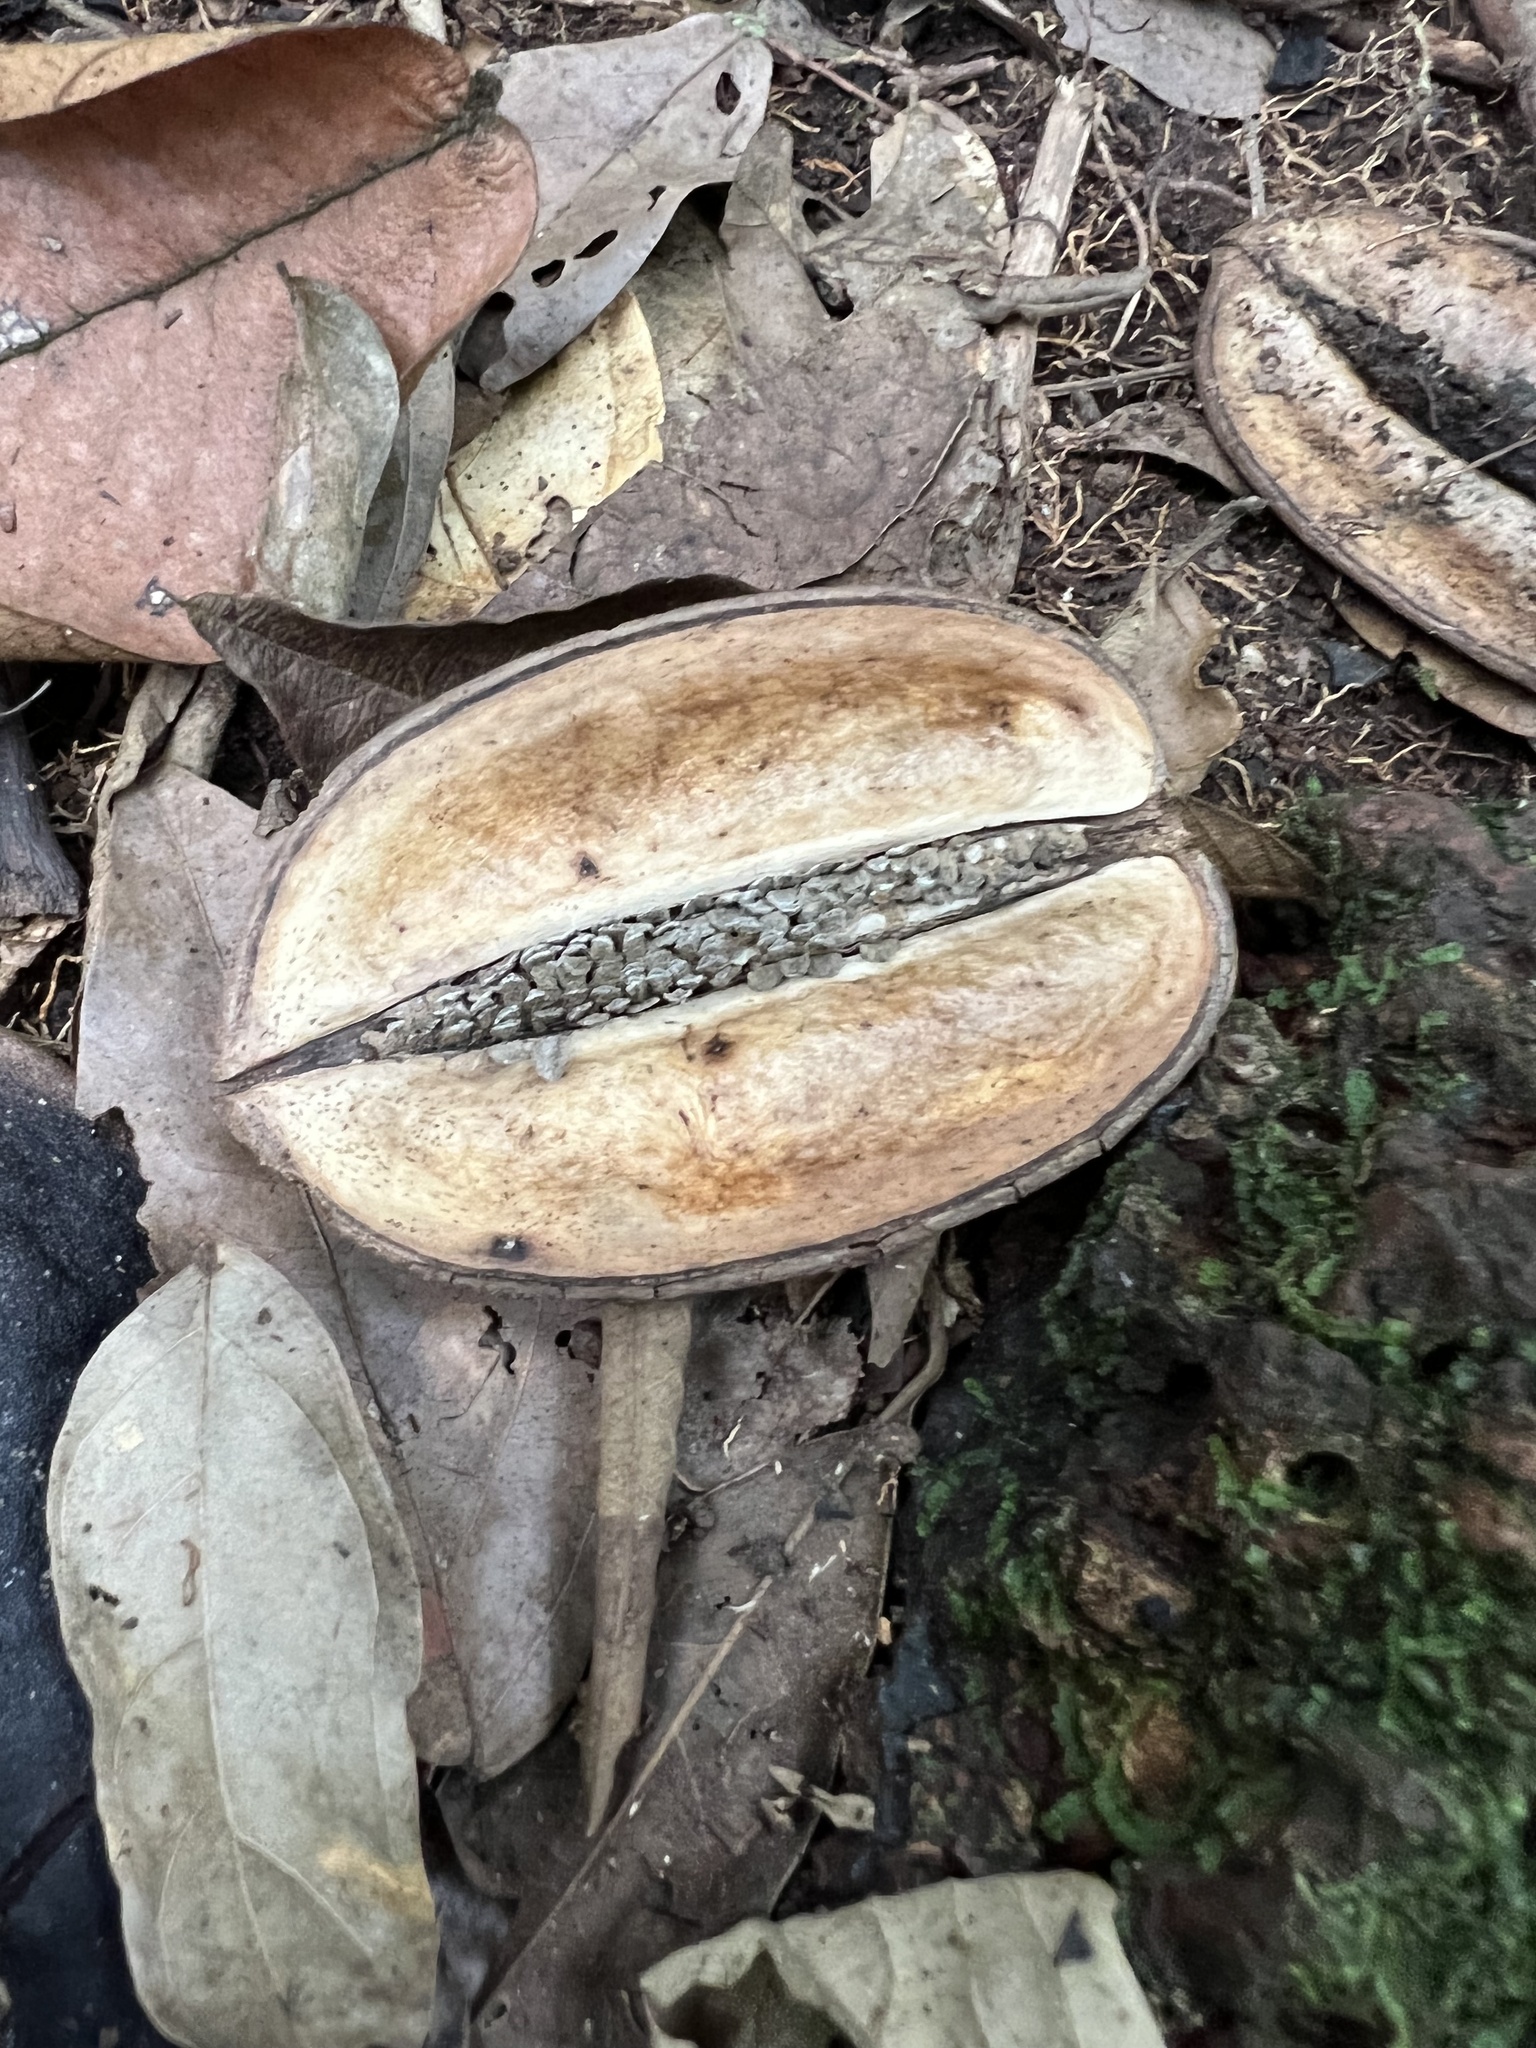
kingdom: Plantae
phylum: Tracheophyta
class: Magnoliopsida
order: Lamiales
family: Bignoniaceae
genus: Jacaranda
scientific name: Jacaranda copaia
